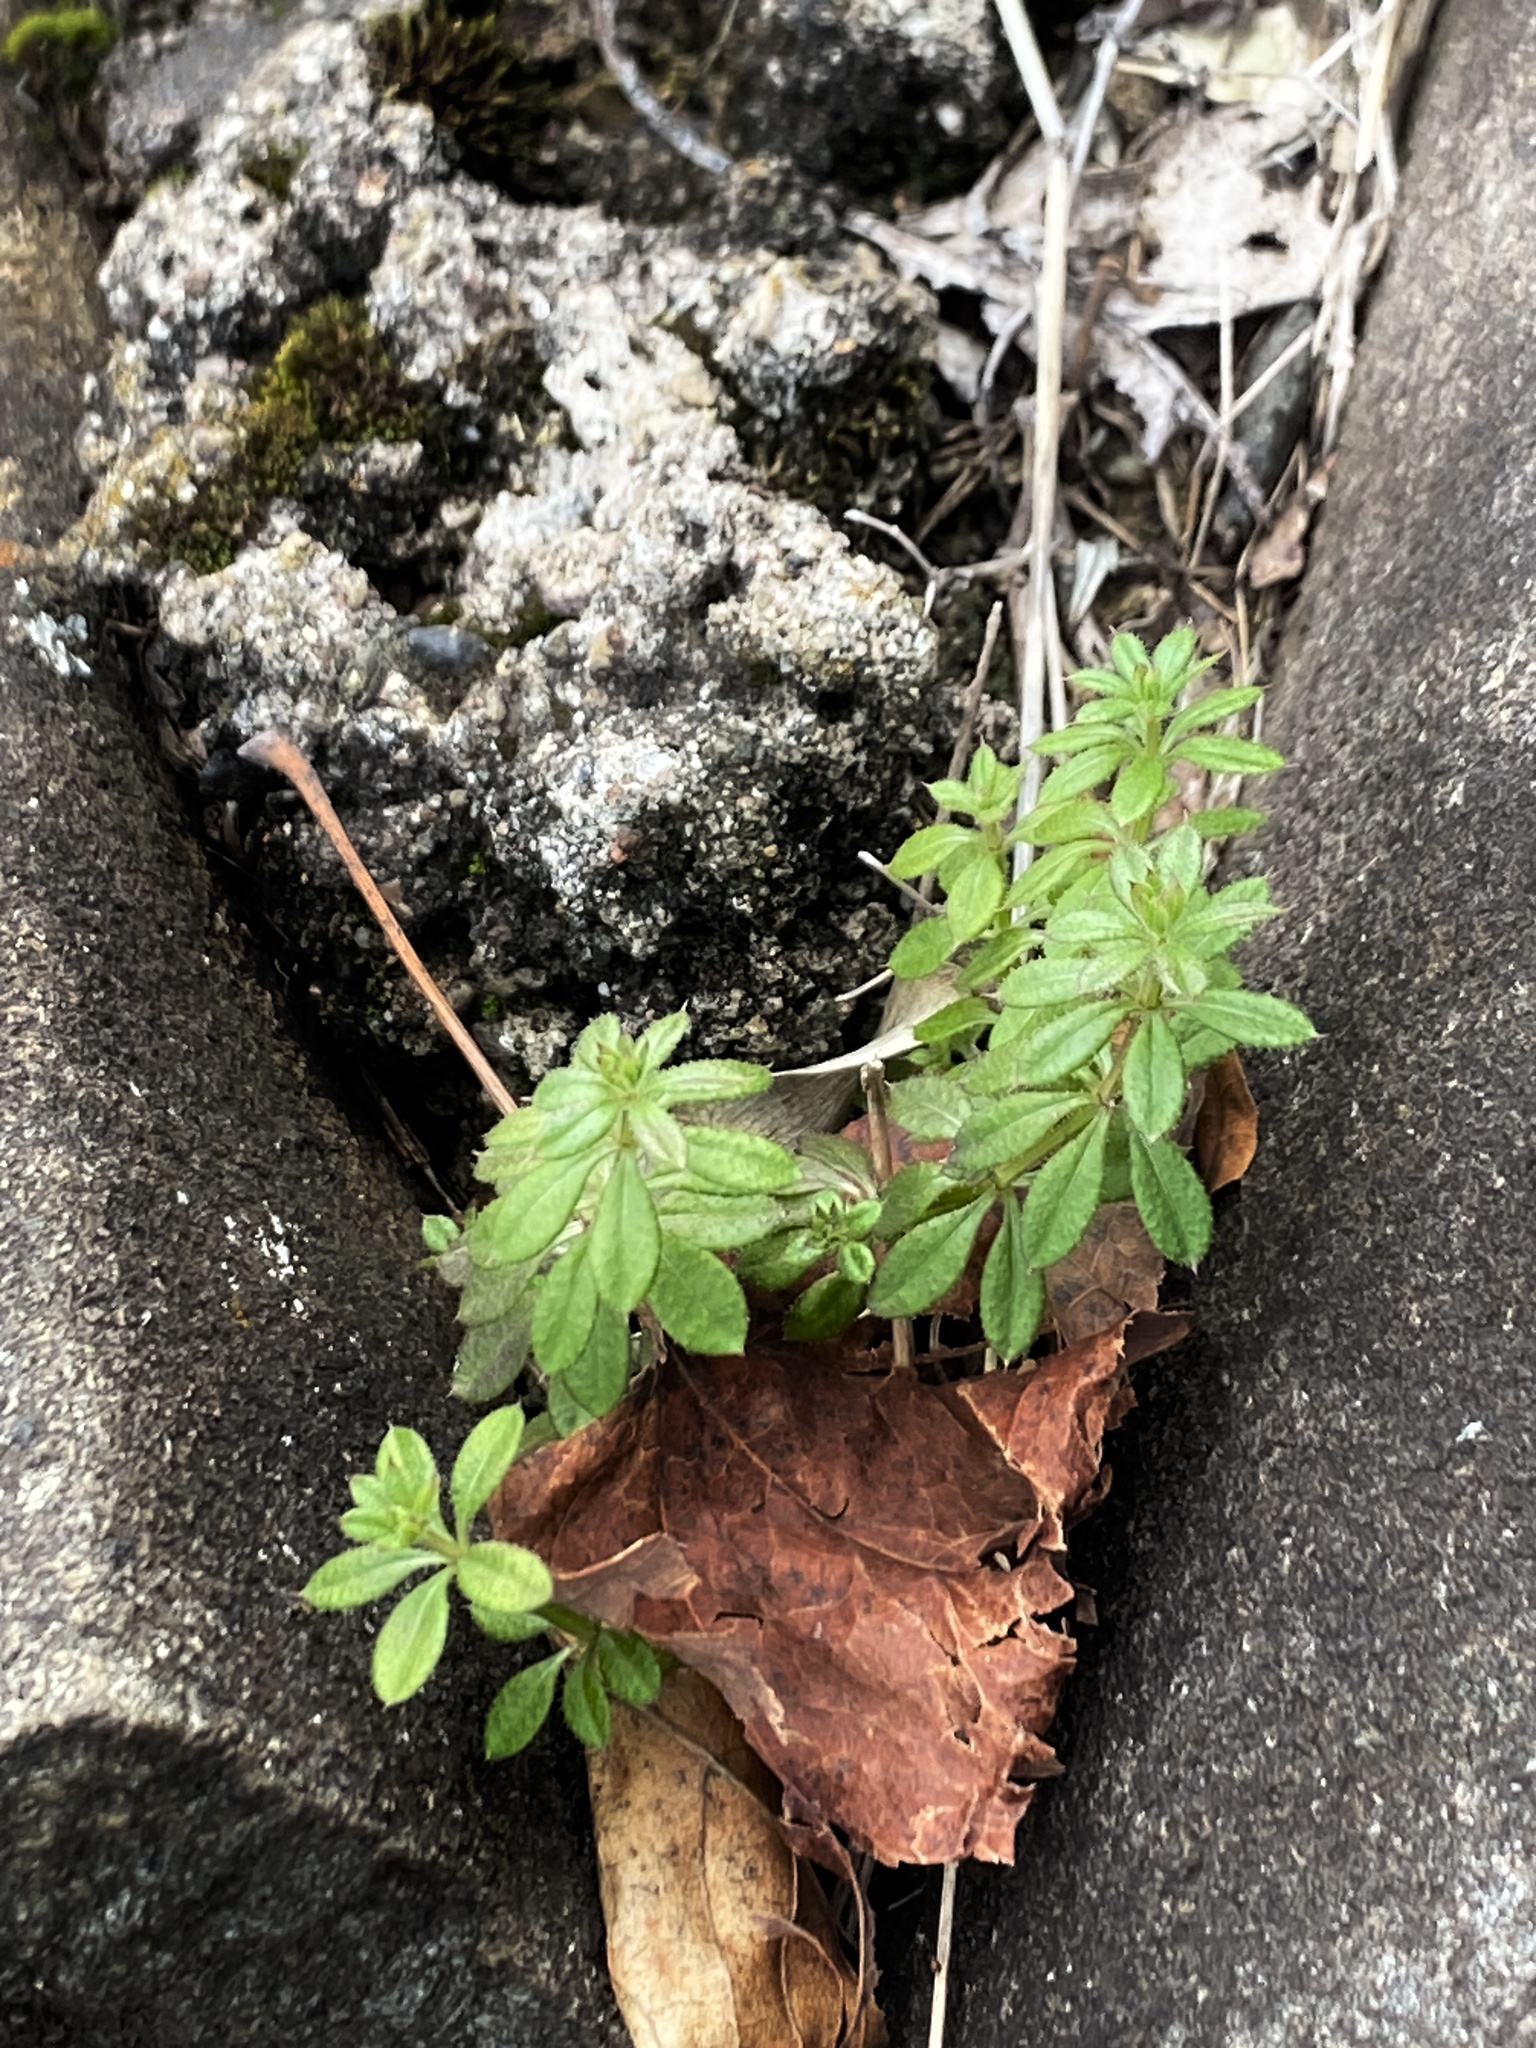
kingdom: Plantae
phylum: Tracheophyta
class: Magnoliopsida
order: Gentianales
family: Rubiaceae
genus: Galium
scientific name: Galium aparine
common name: Cleavers
